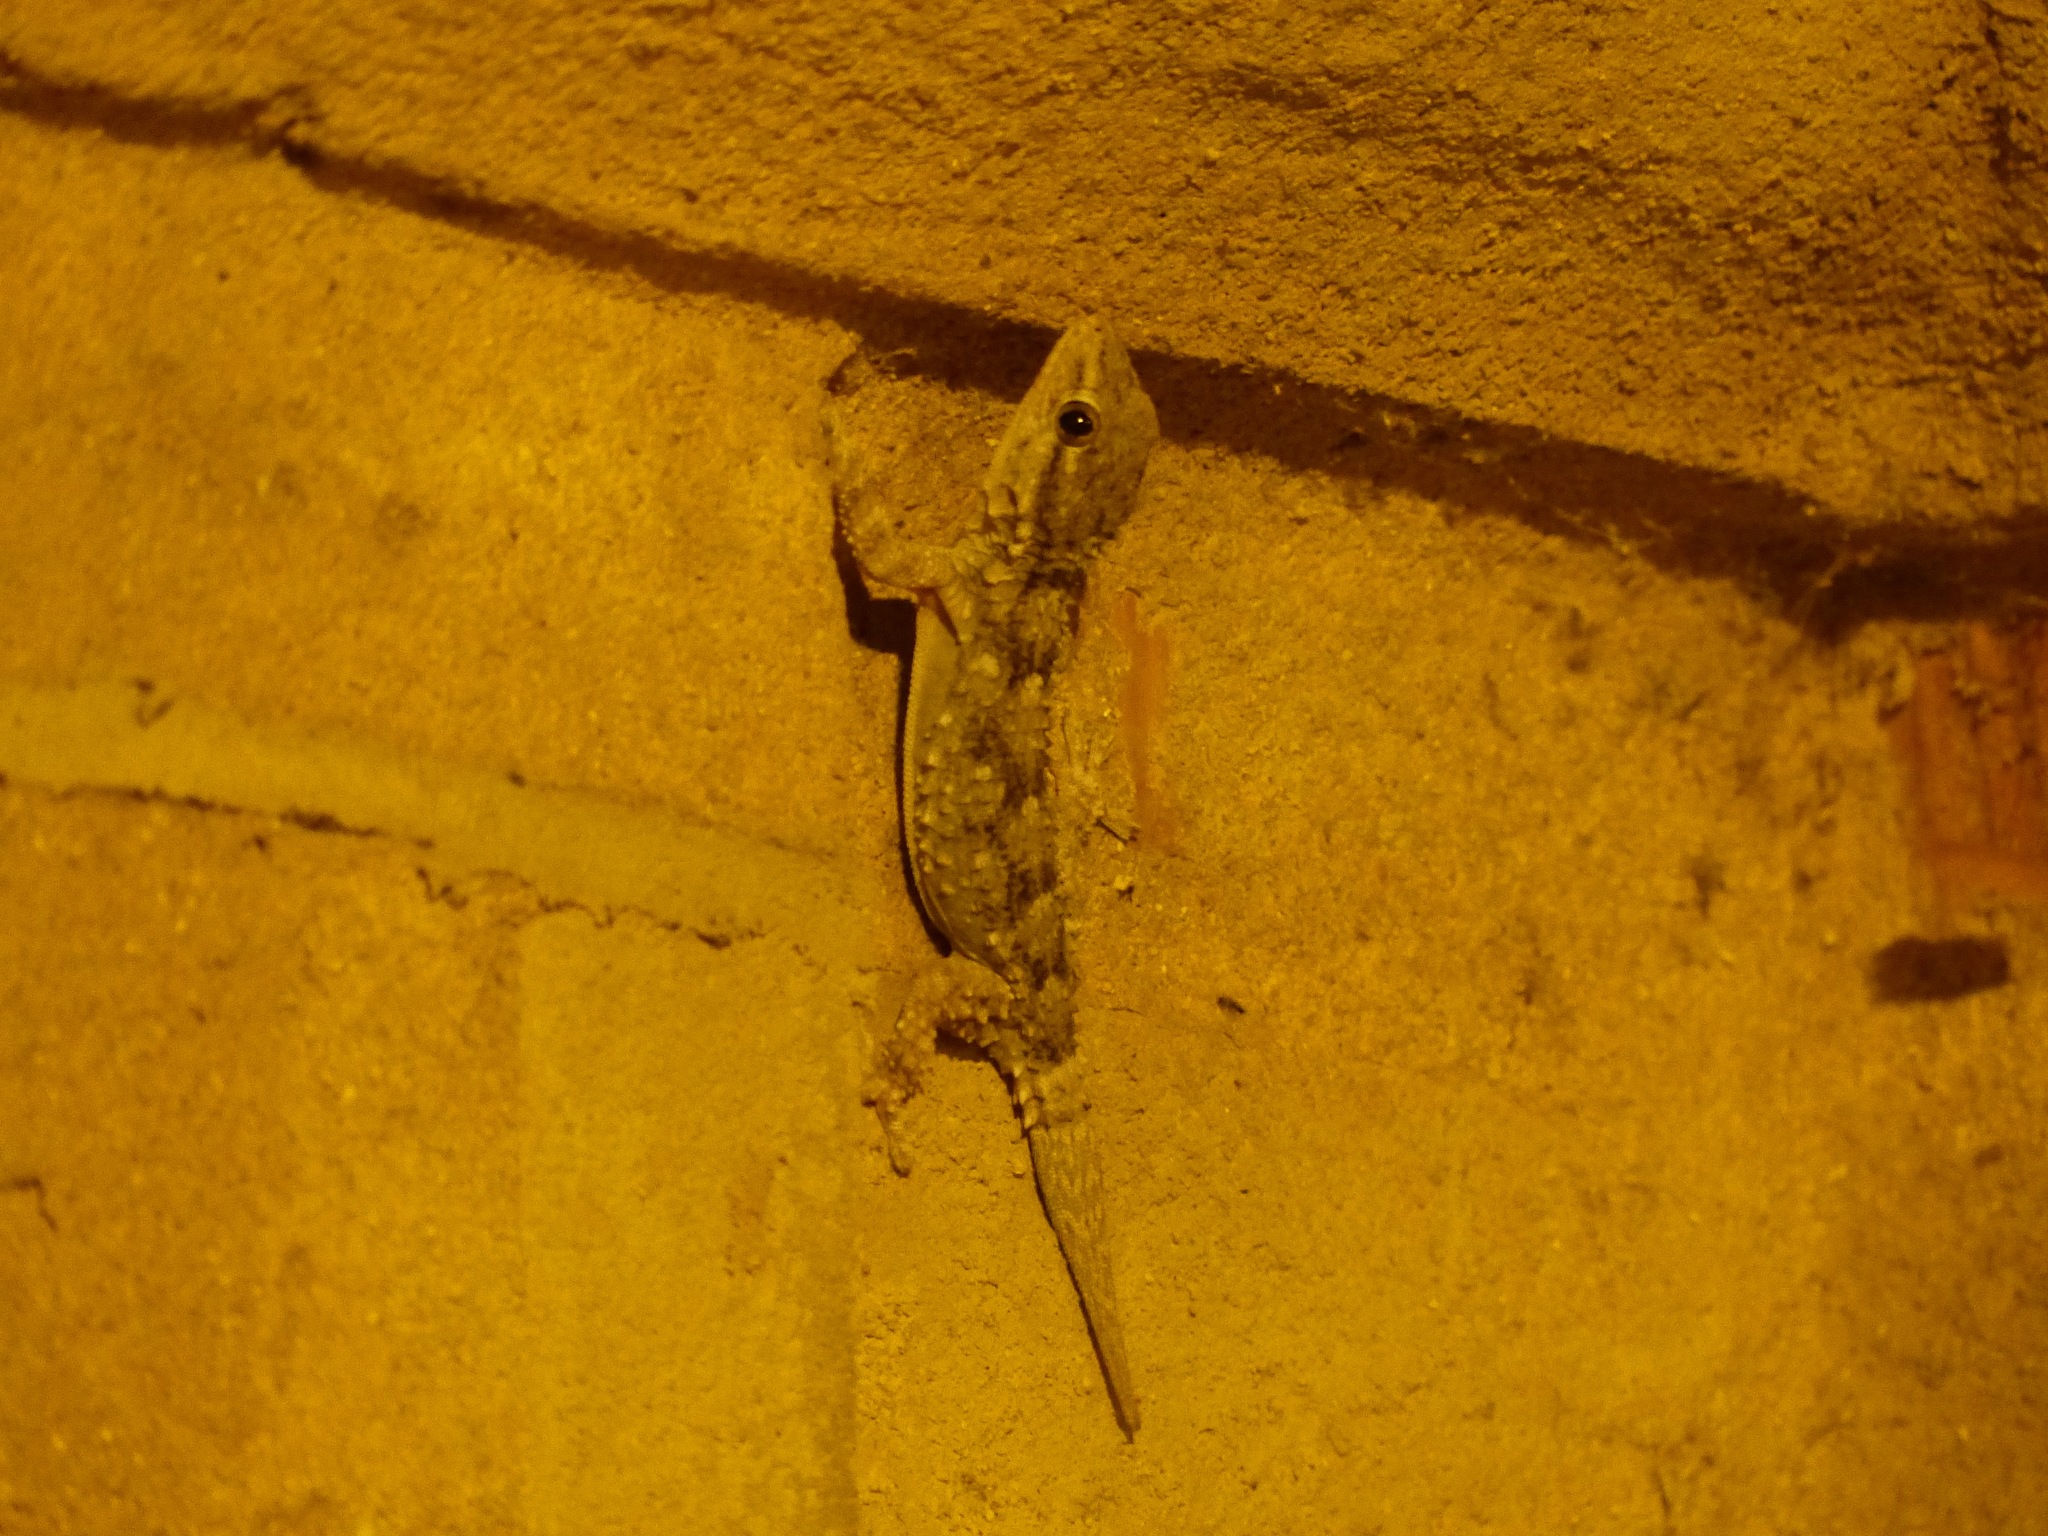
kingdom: Animalia
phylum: Chordata
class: Squamata
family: Phyllodactylidae
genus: Tarentola
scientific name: Tarentola mauritanica
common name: Moorish gecko
